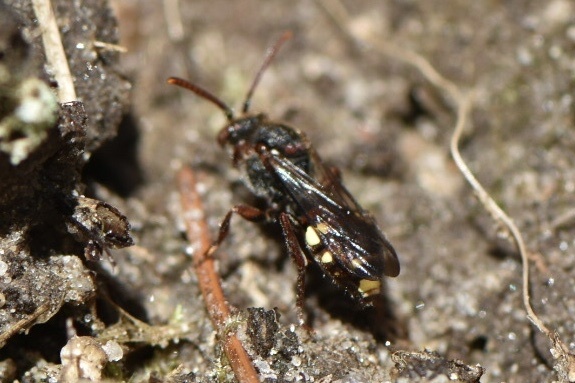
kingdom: Animalia
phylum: Arthropoda
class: Insecta
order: Hymenoptera
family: Apidae
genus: Nomada
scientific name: Nomada leucophthalma
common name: Early nomad bee
